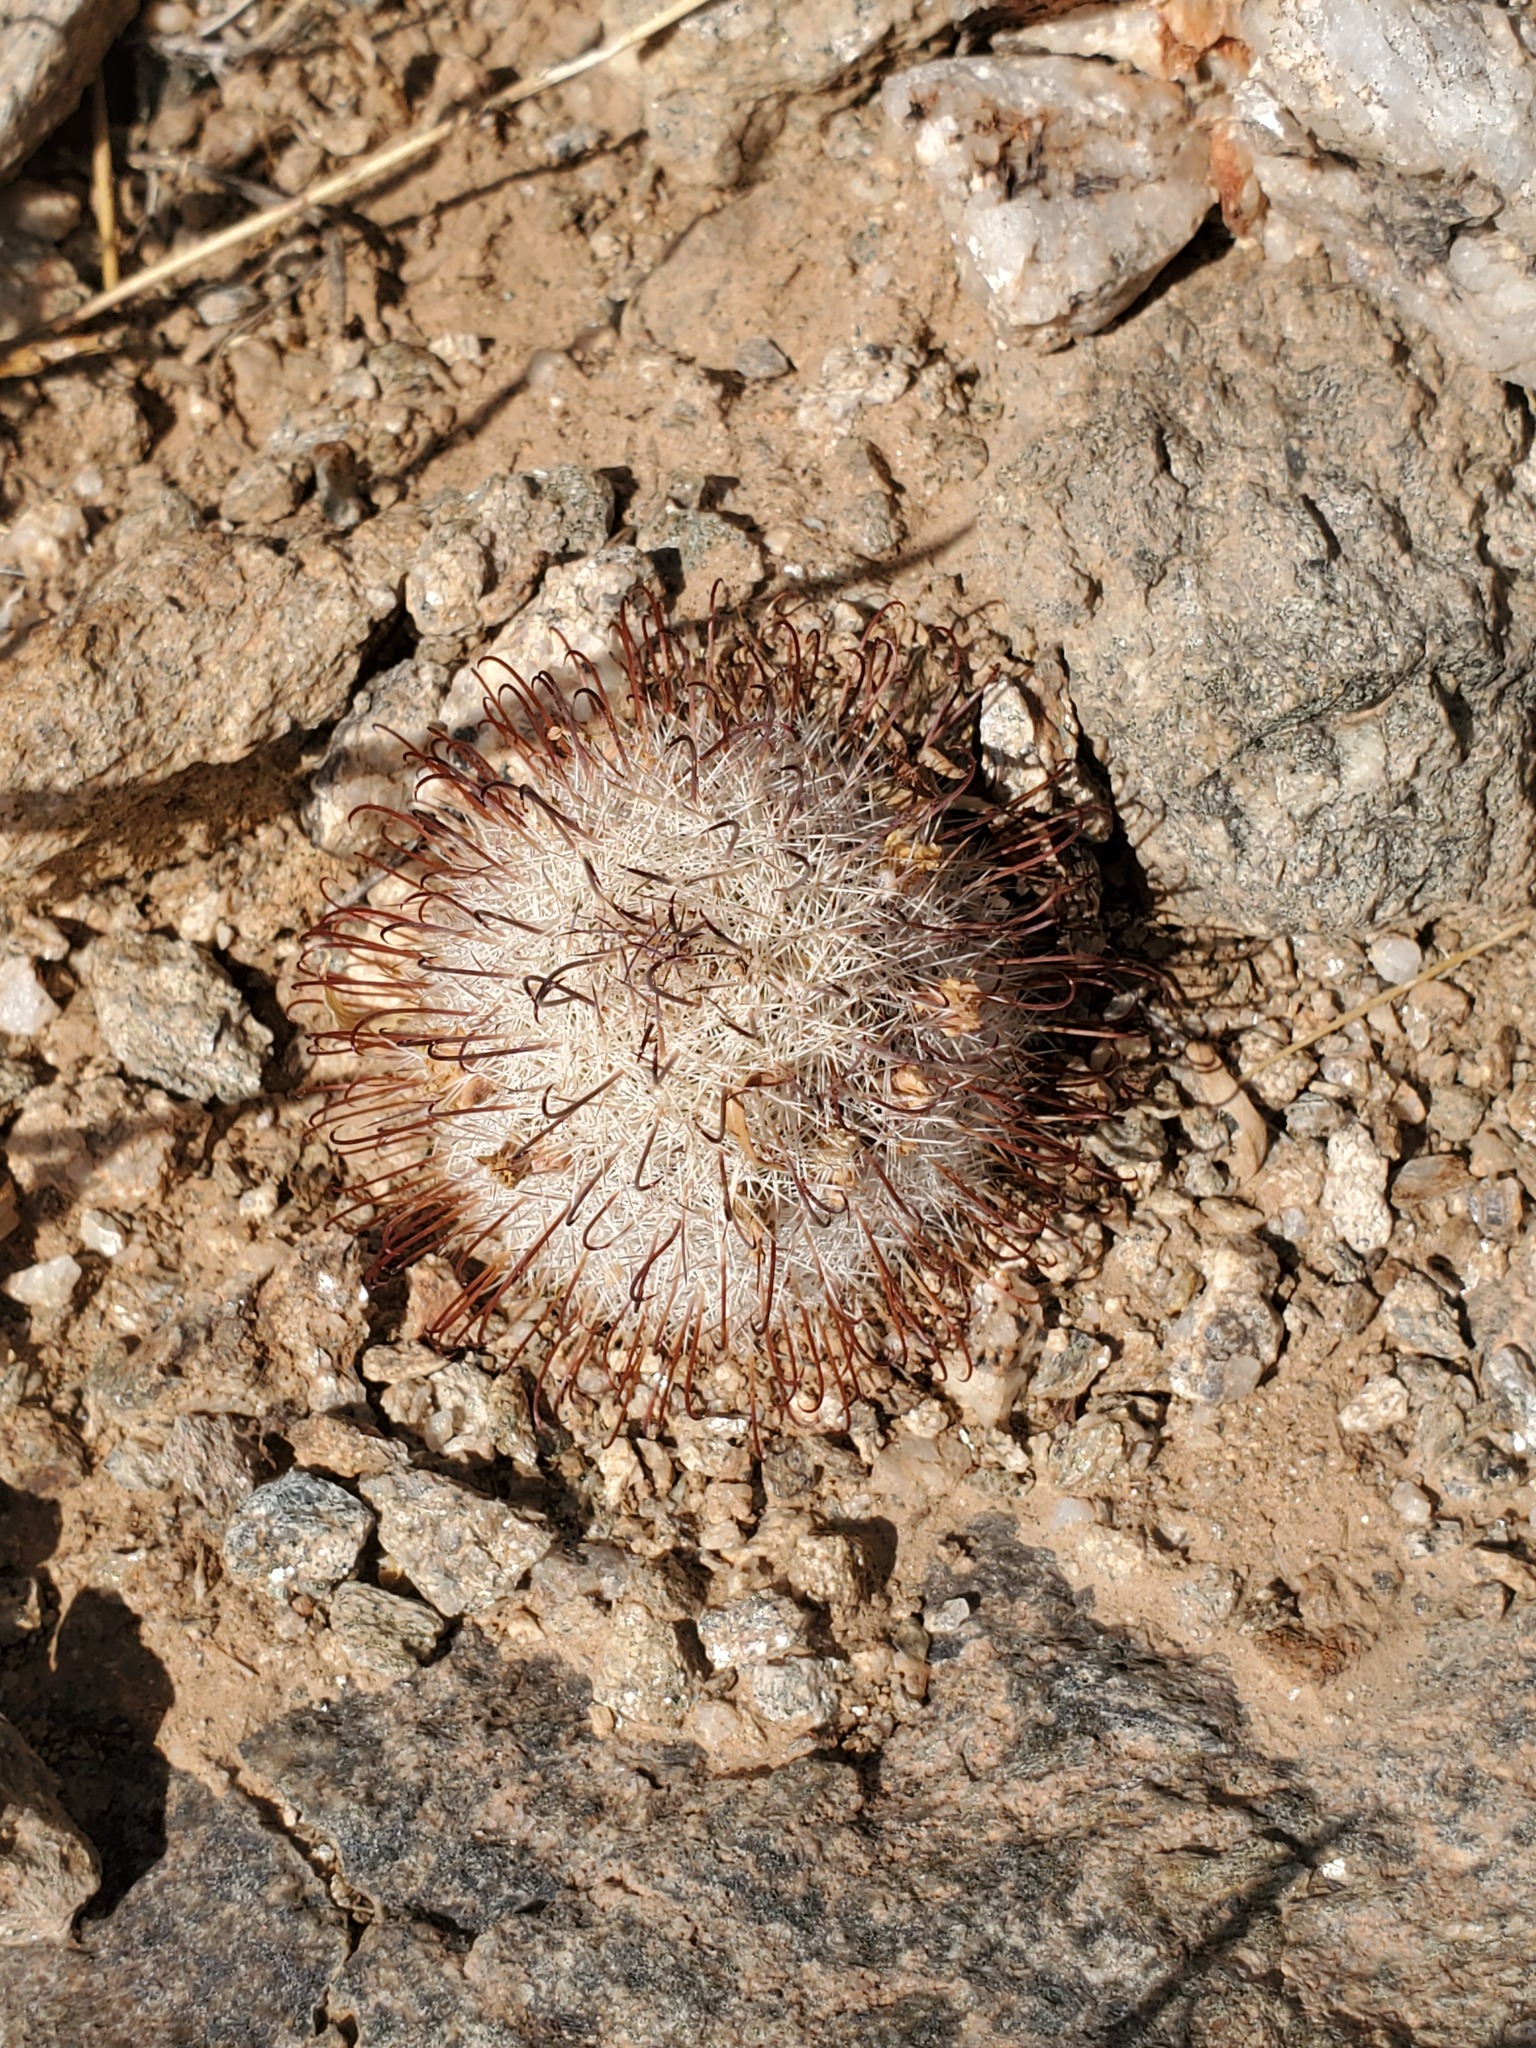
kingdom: Plantae
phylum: Tracheophyta
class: Magnoliopsida
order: Caryophyllales
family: Cactaceae
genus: Cochemiea
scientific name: Cochemiea grahamii
